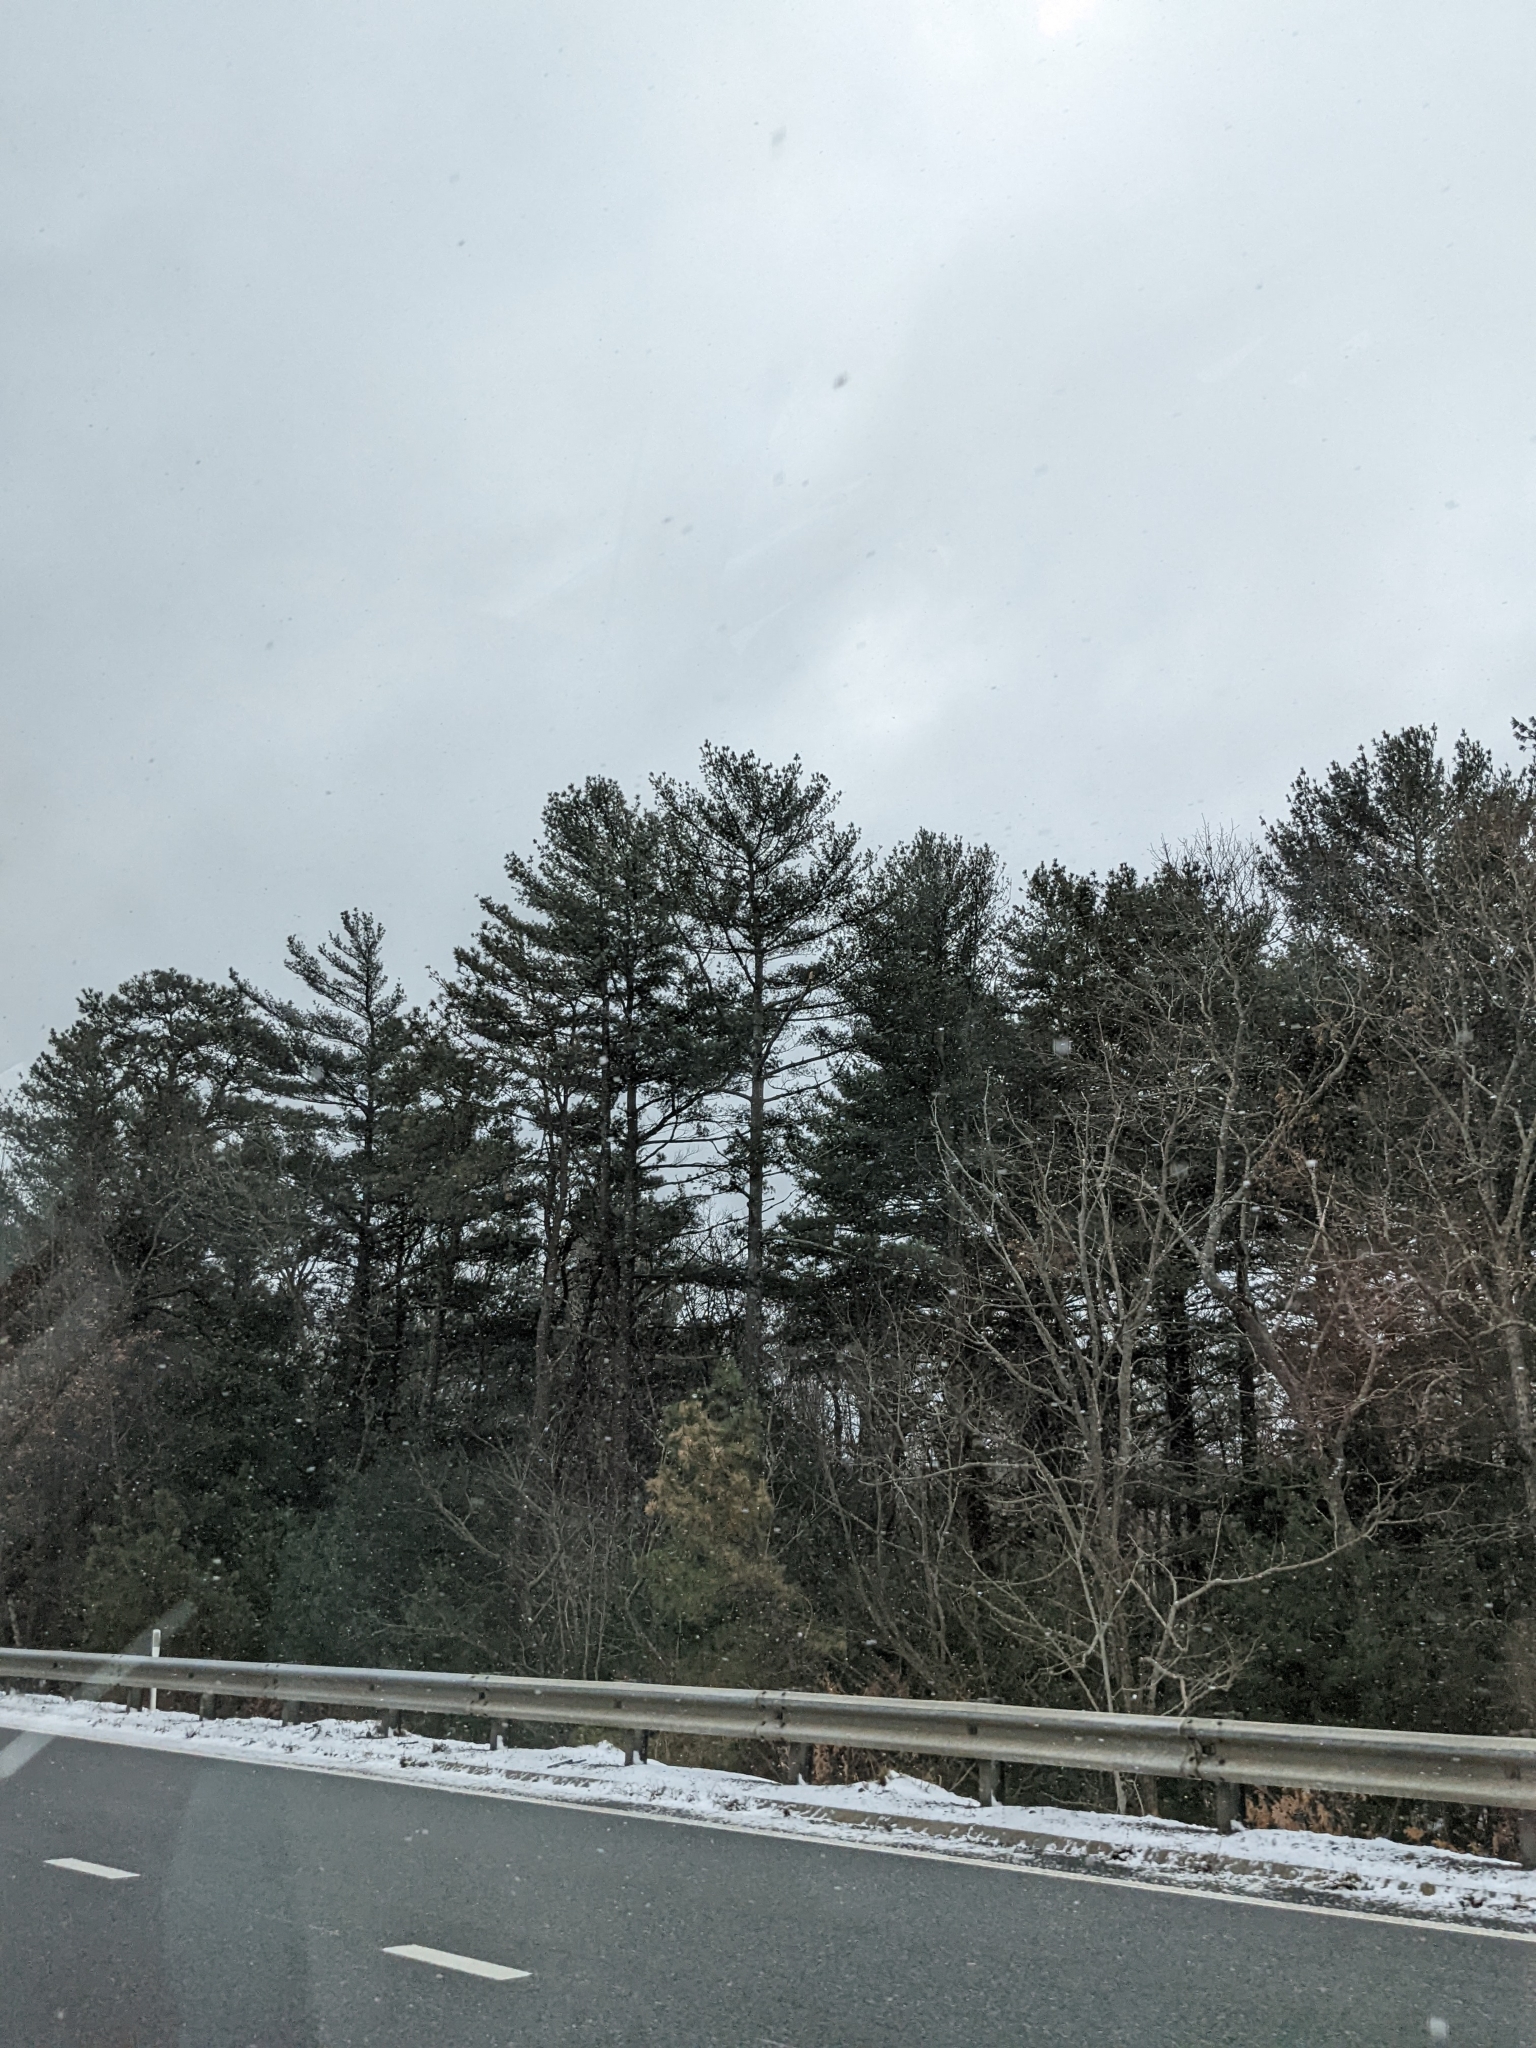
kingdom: Plantae
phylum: Tracheophyta
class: Pinopsida
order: Pinales
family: Pinaceae
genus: Pinus
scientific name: Pinus strobus
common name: Weymouth pine
